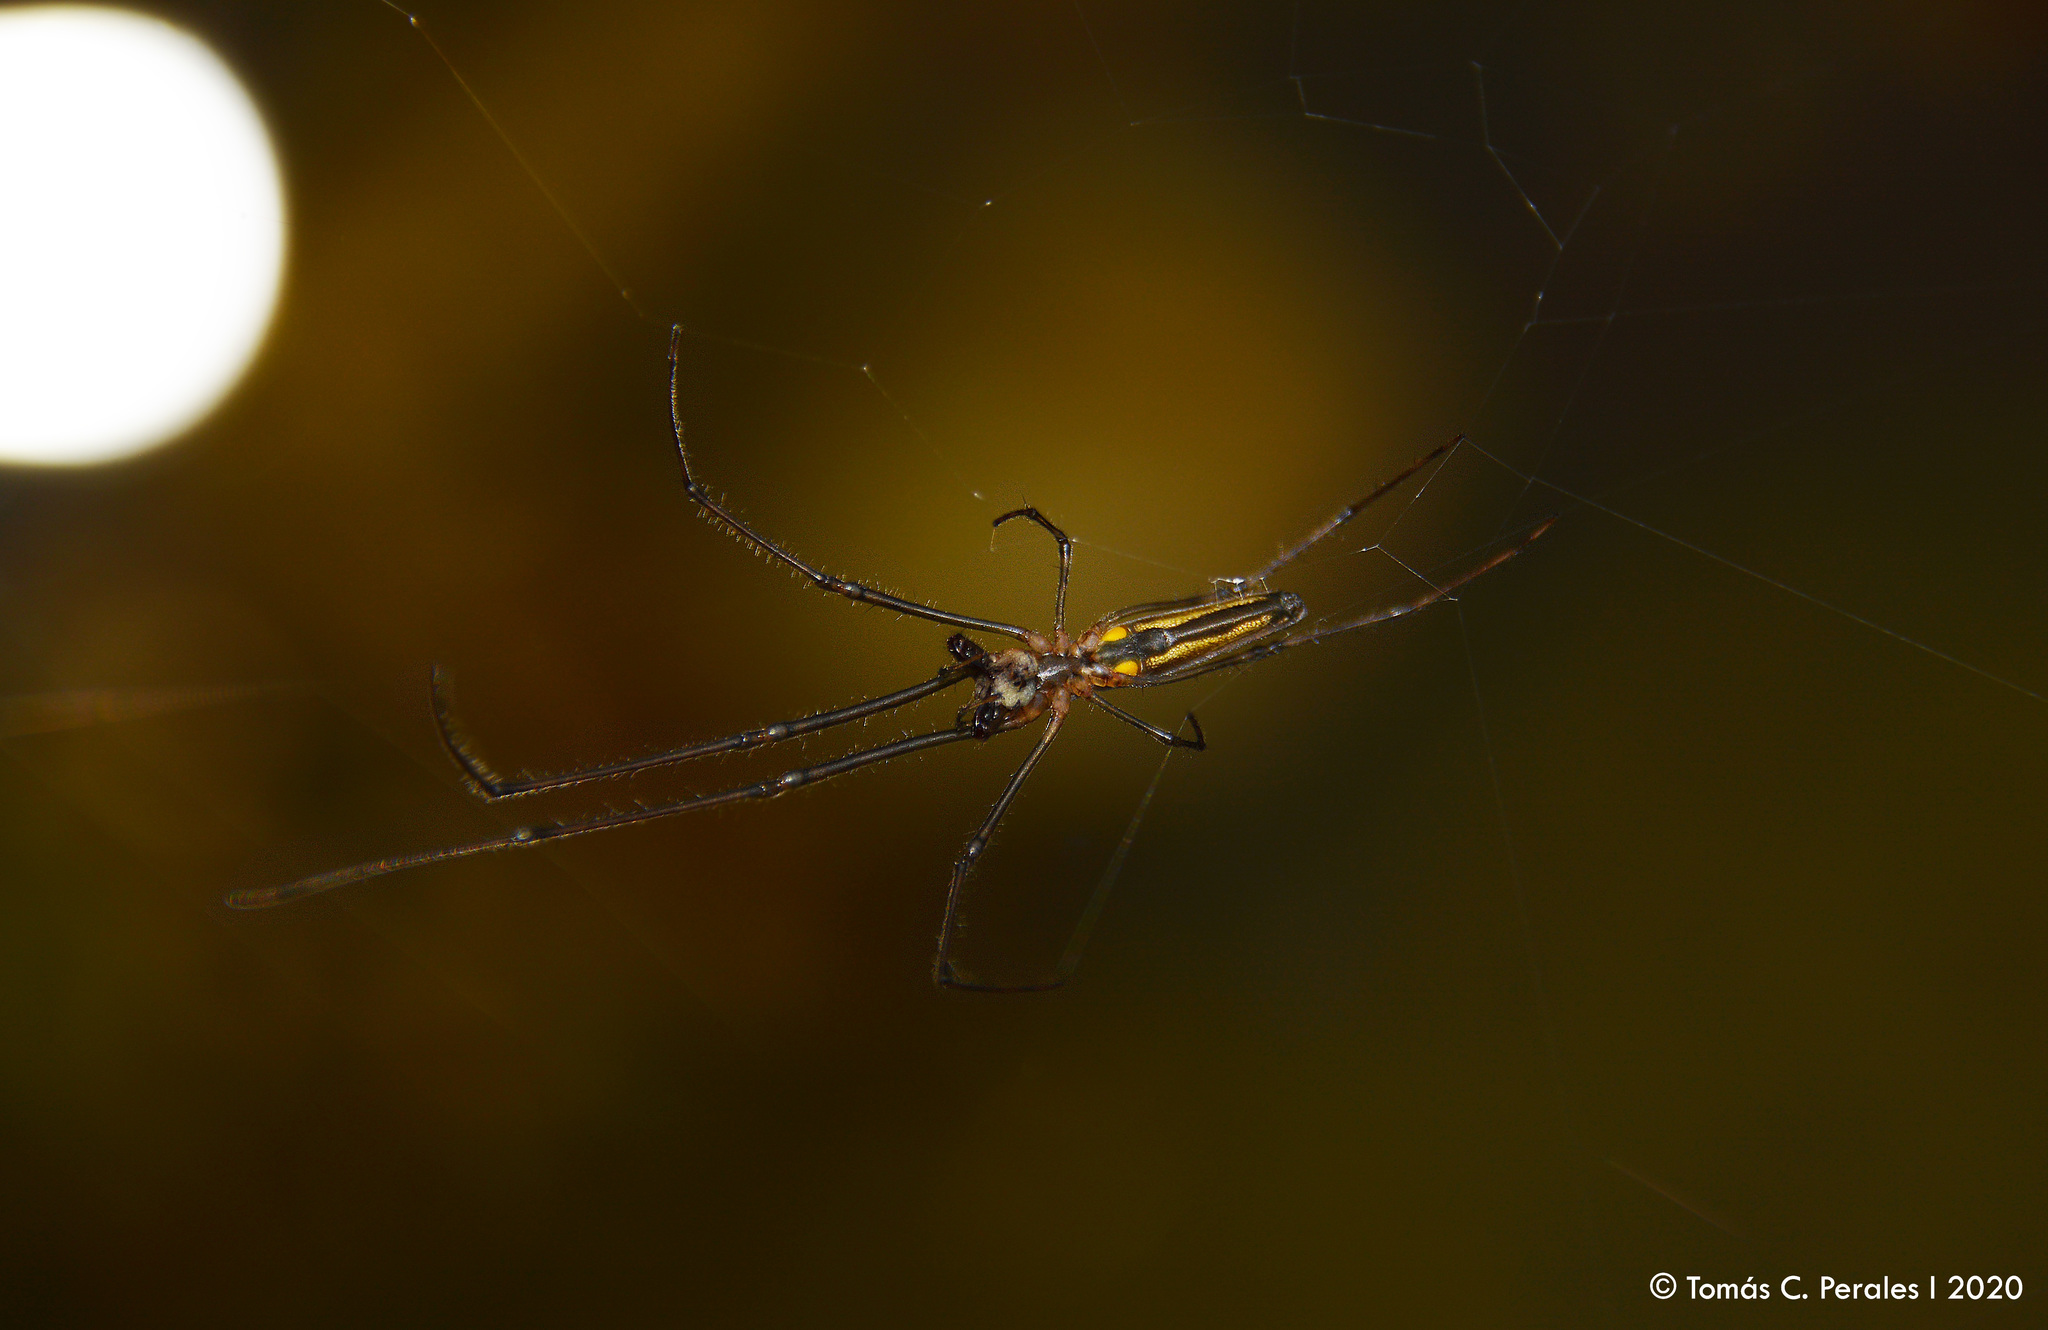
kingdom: Animalia
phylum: Arthropoda
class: Arachnida
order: Araneae
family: Tetragnathidae
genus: Tetragnatha
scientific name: Tetragnatha
